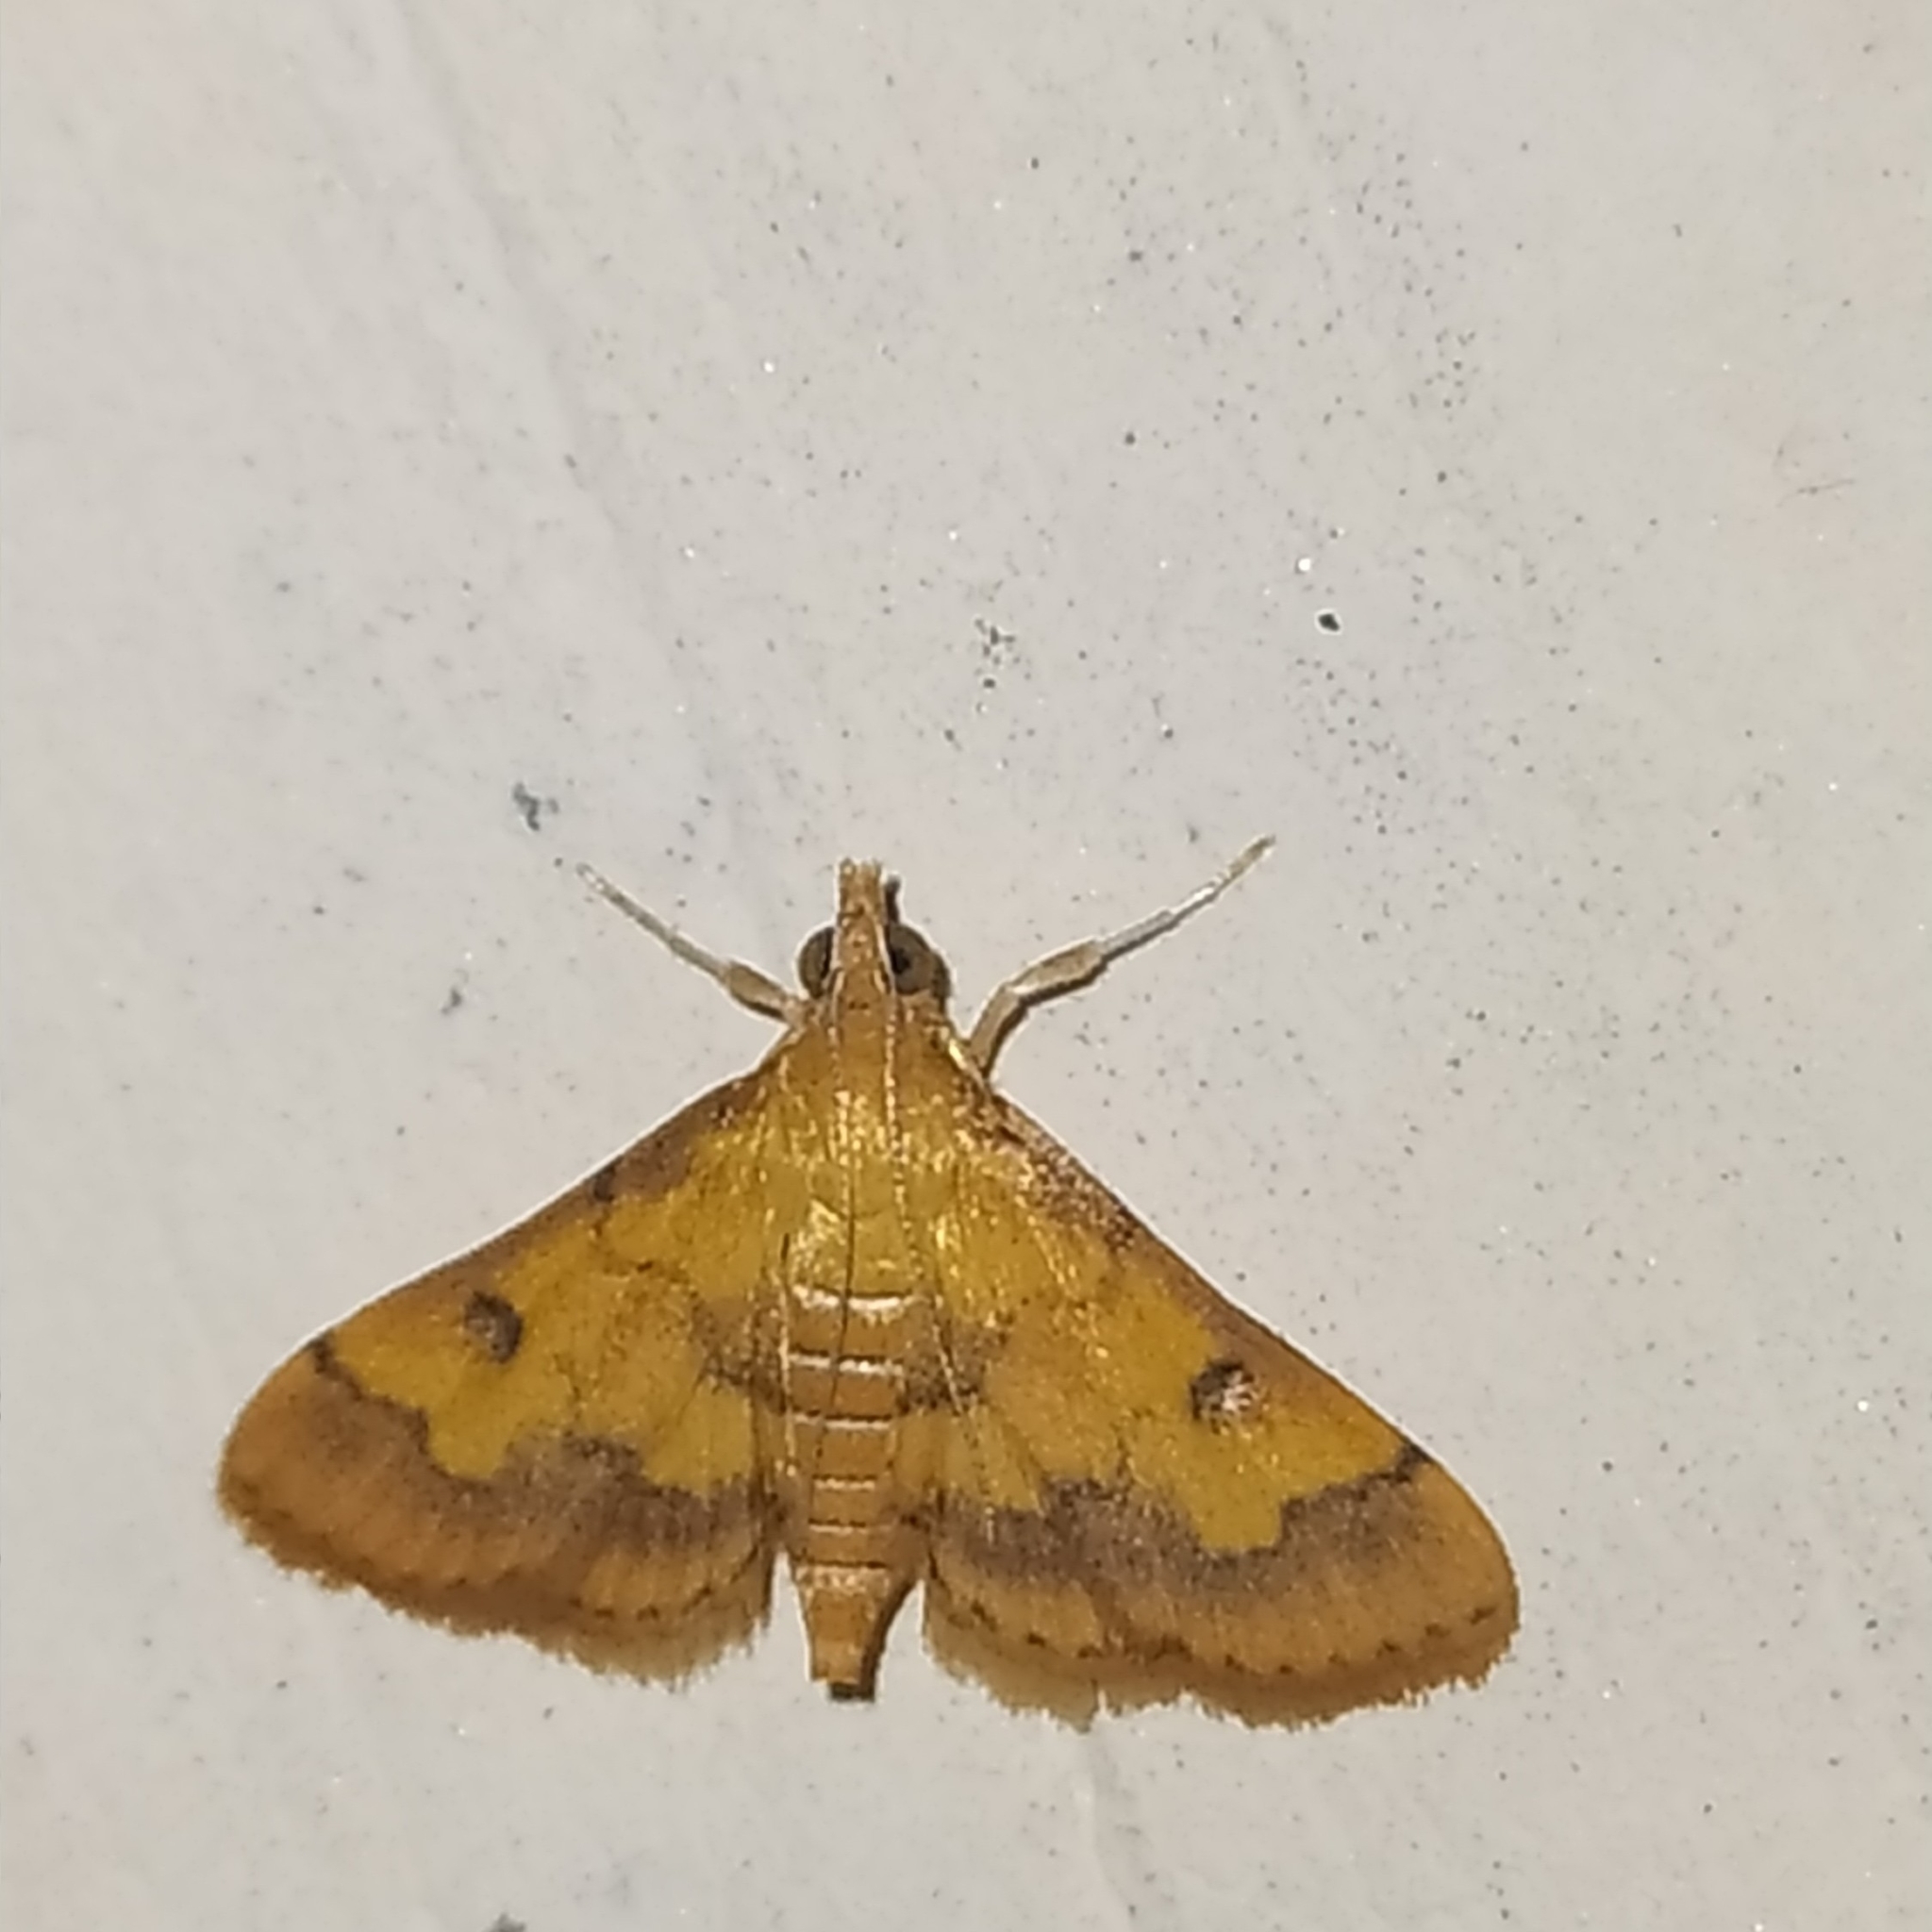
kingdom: Animalia
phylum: Arthropoda
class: Insecta
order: Lepidoptera
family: Crambidae
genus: Ischnurges
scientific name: Ischnurges luteomarginalis
